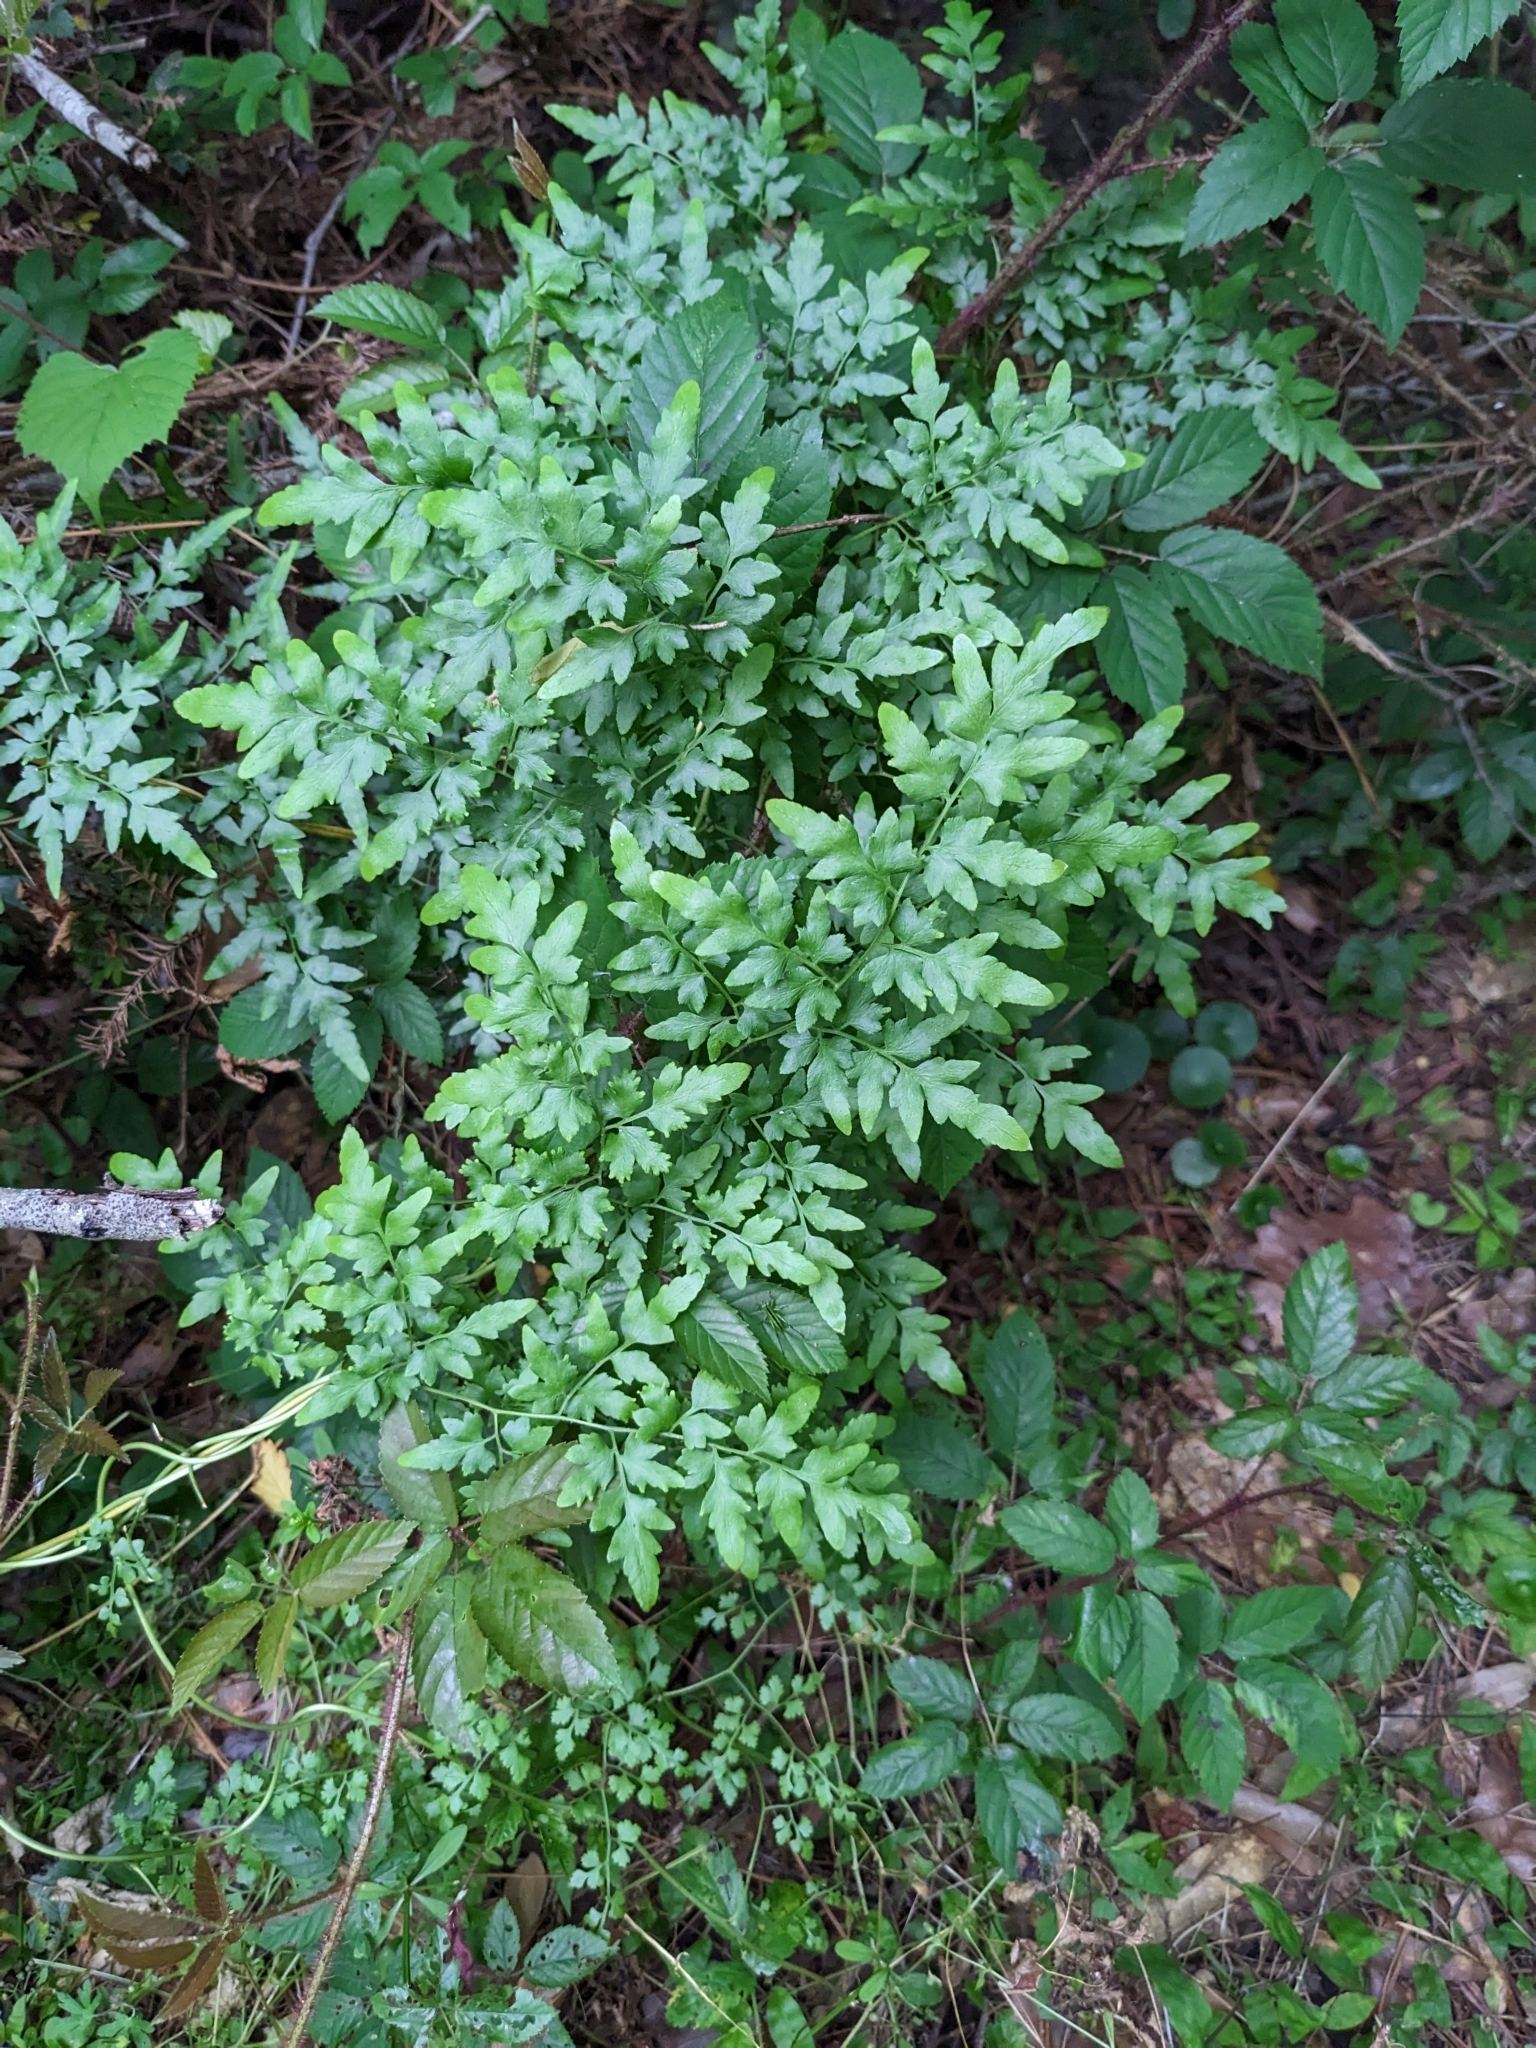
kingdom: Plantae
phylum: Tracheophyta
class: Polypodiopsida
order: Schizaeales
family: Lygodiaceae
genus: Lygodium
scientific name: Lygodium japonicum
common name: Japanese climbing fern
